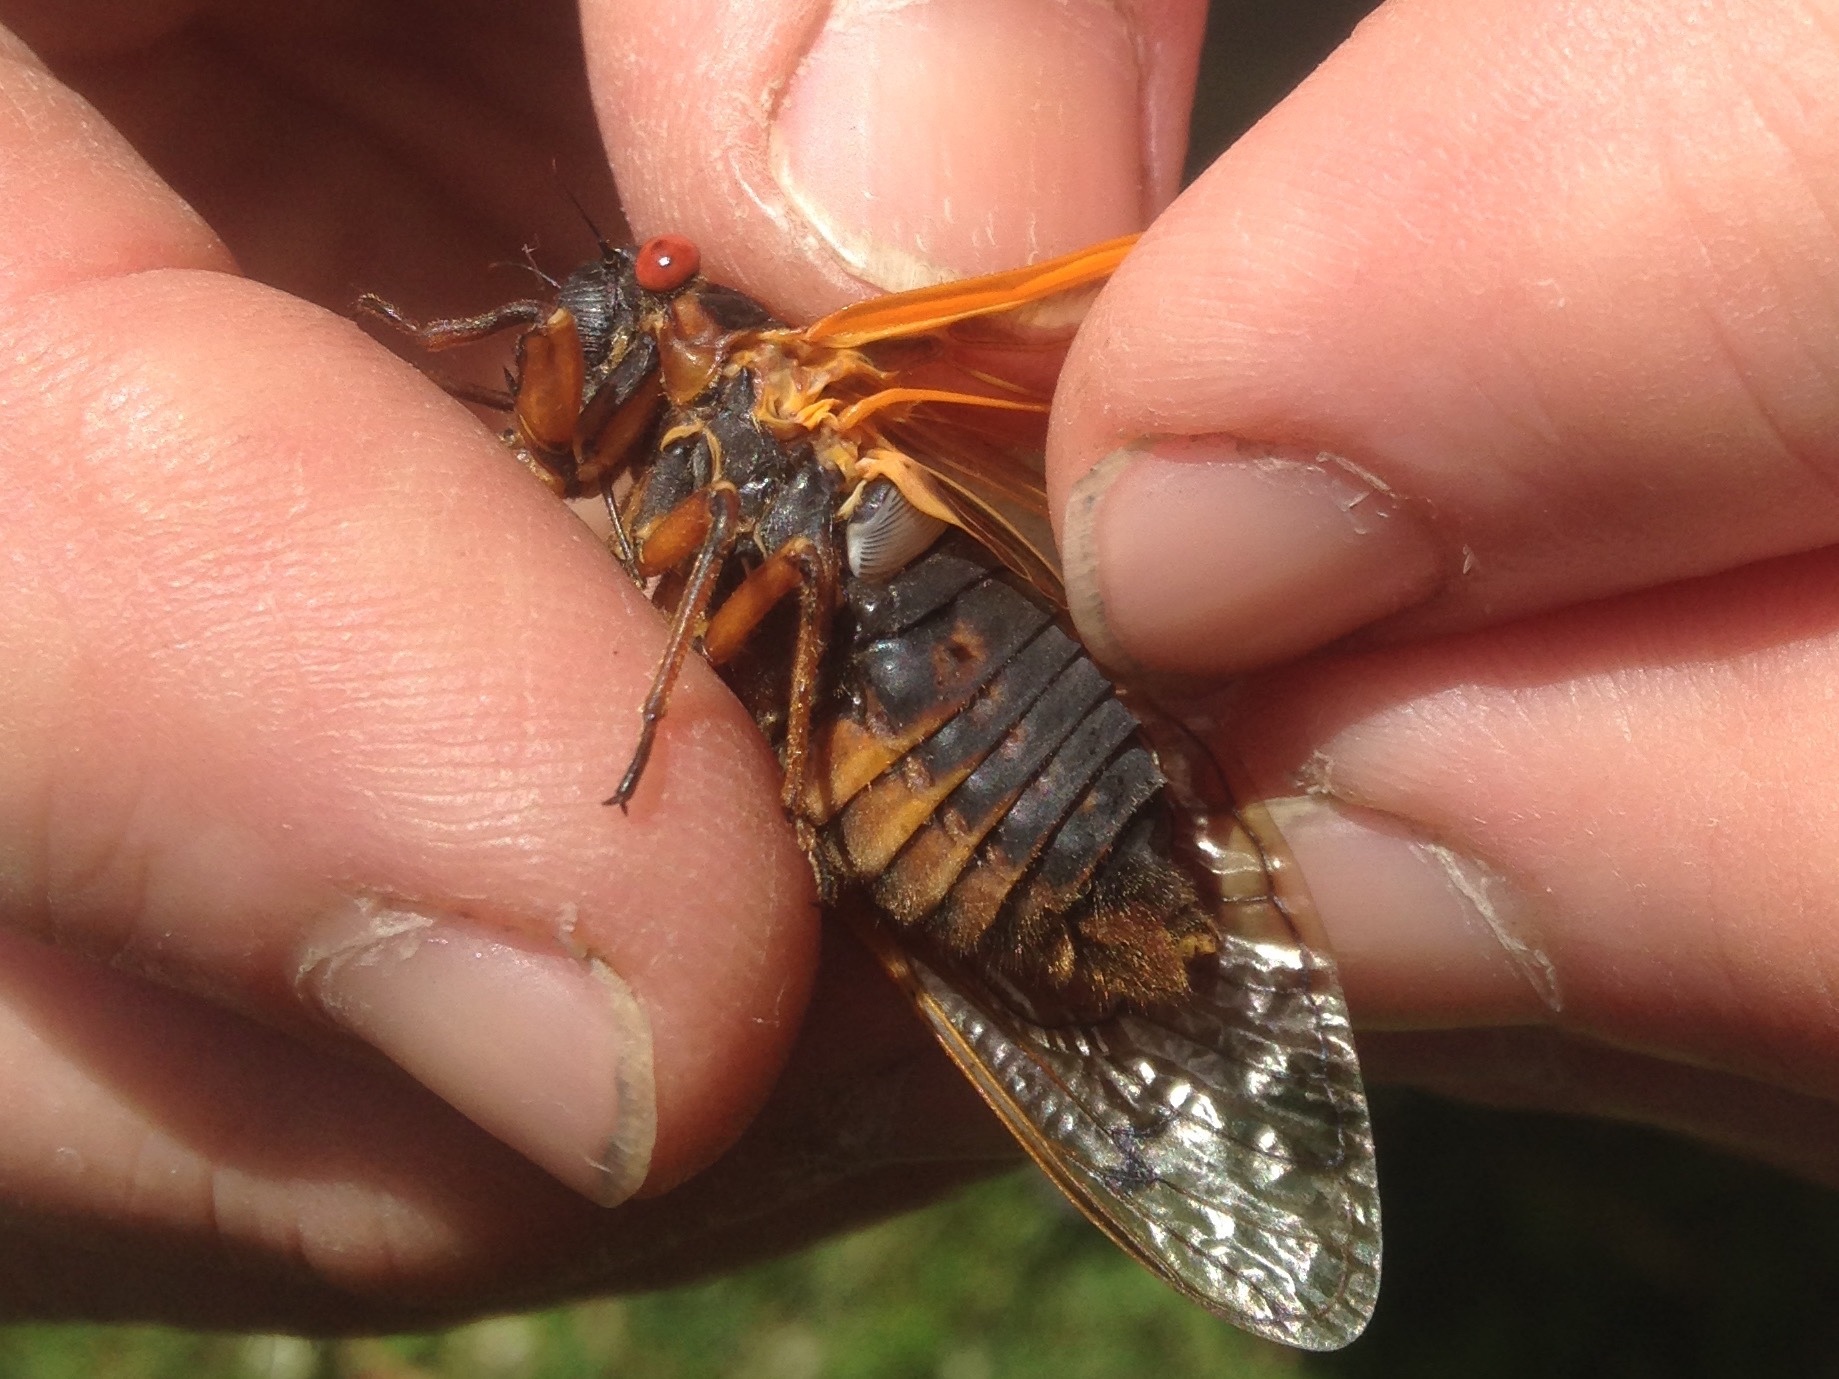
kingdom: Animalia
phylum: Arthropoda
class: Insecta
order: Hemiptera
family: Cicadidae
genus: Magicicada
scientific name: Magicicada septendecim
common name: Periodical cicada
